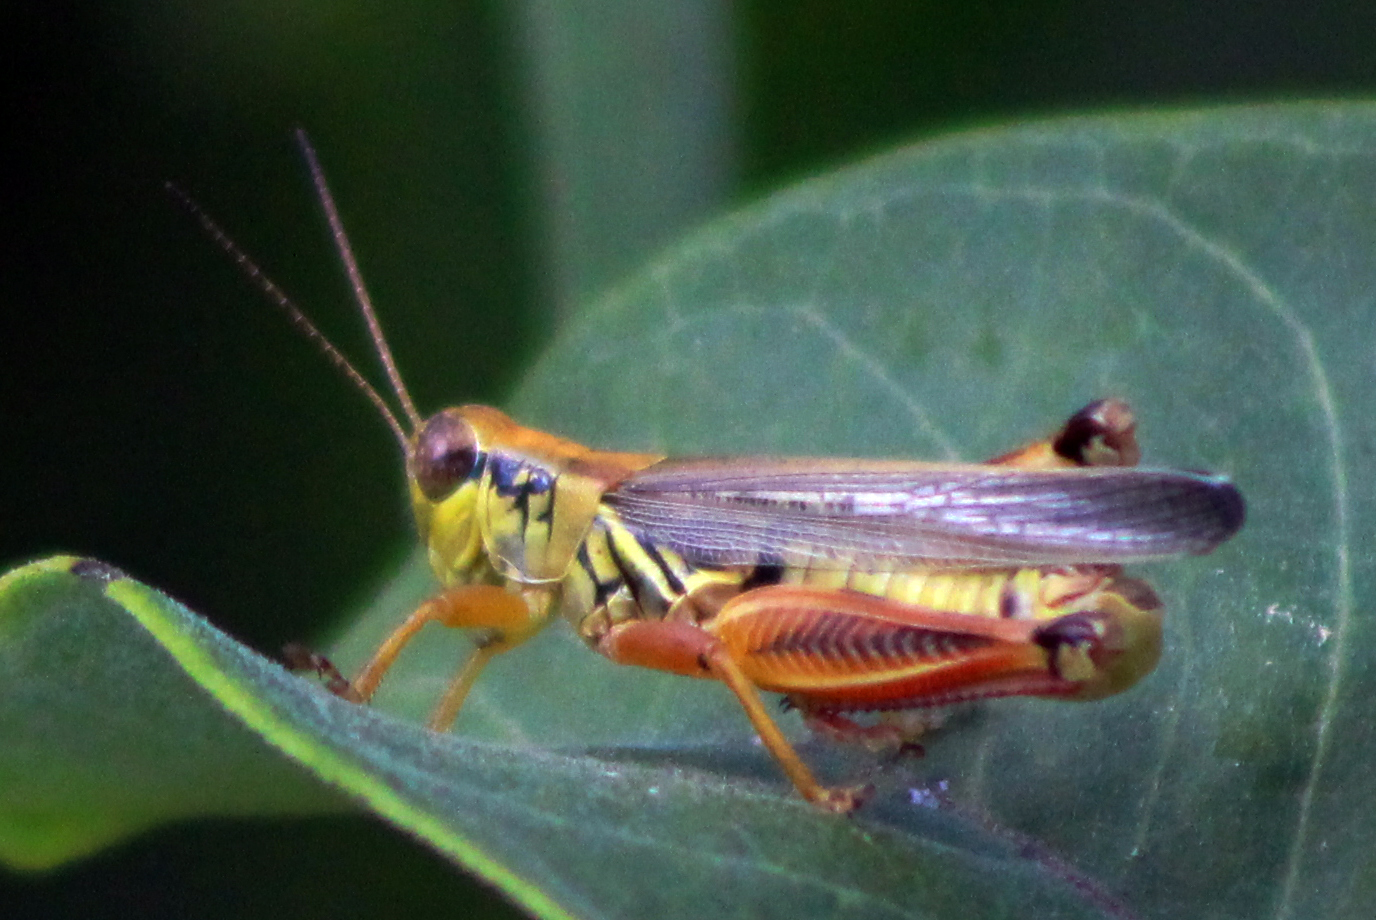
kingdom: Animalia
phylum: Arthropoda
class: Insecta
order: Orthoptera
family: Acrididae
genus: Melanoplus
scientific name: Melanoplus femurrubrum
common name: Red-legged grasshopper
